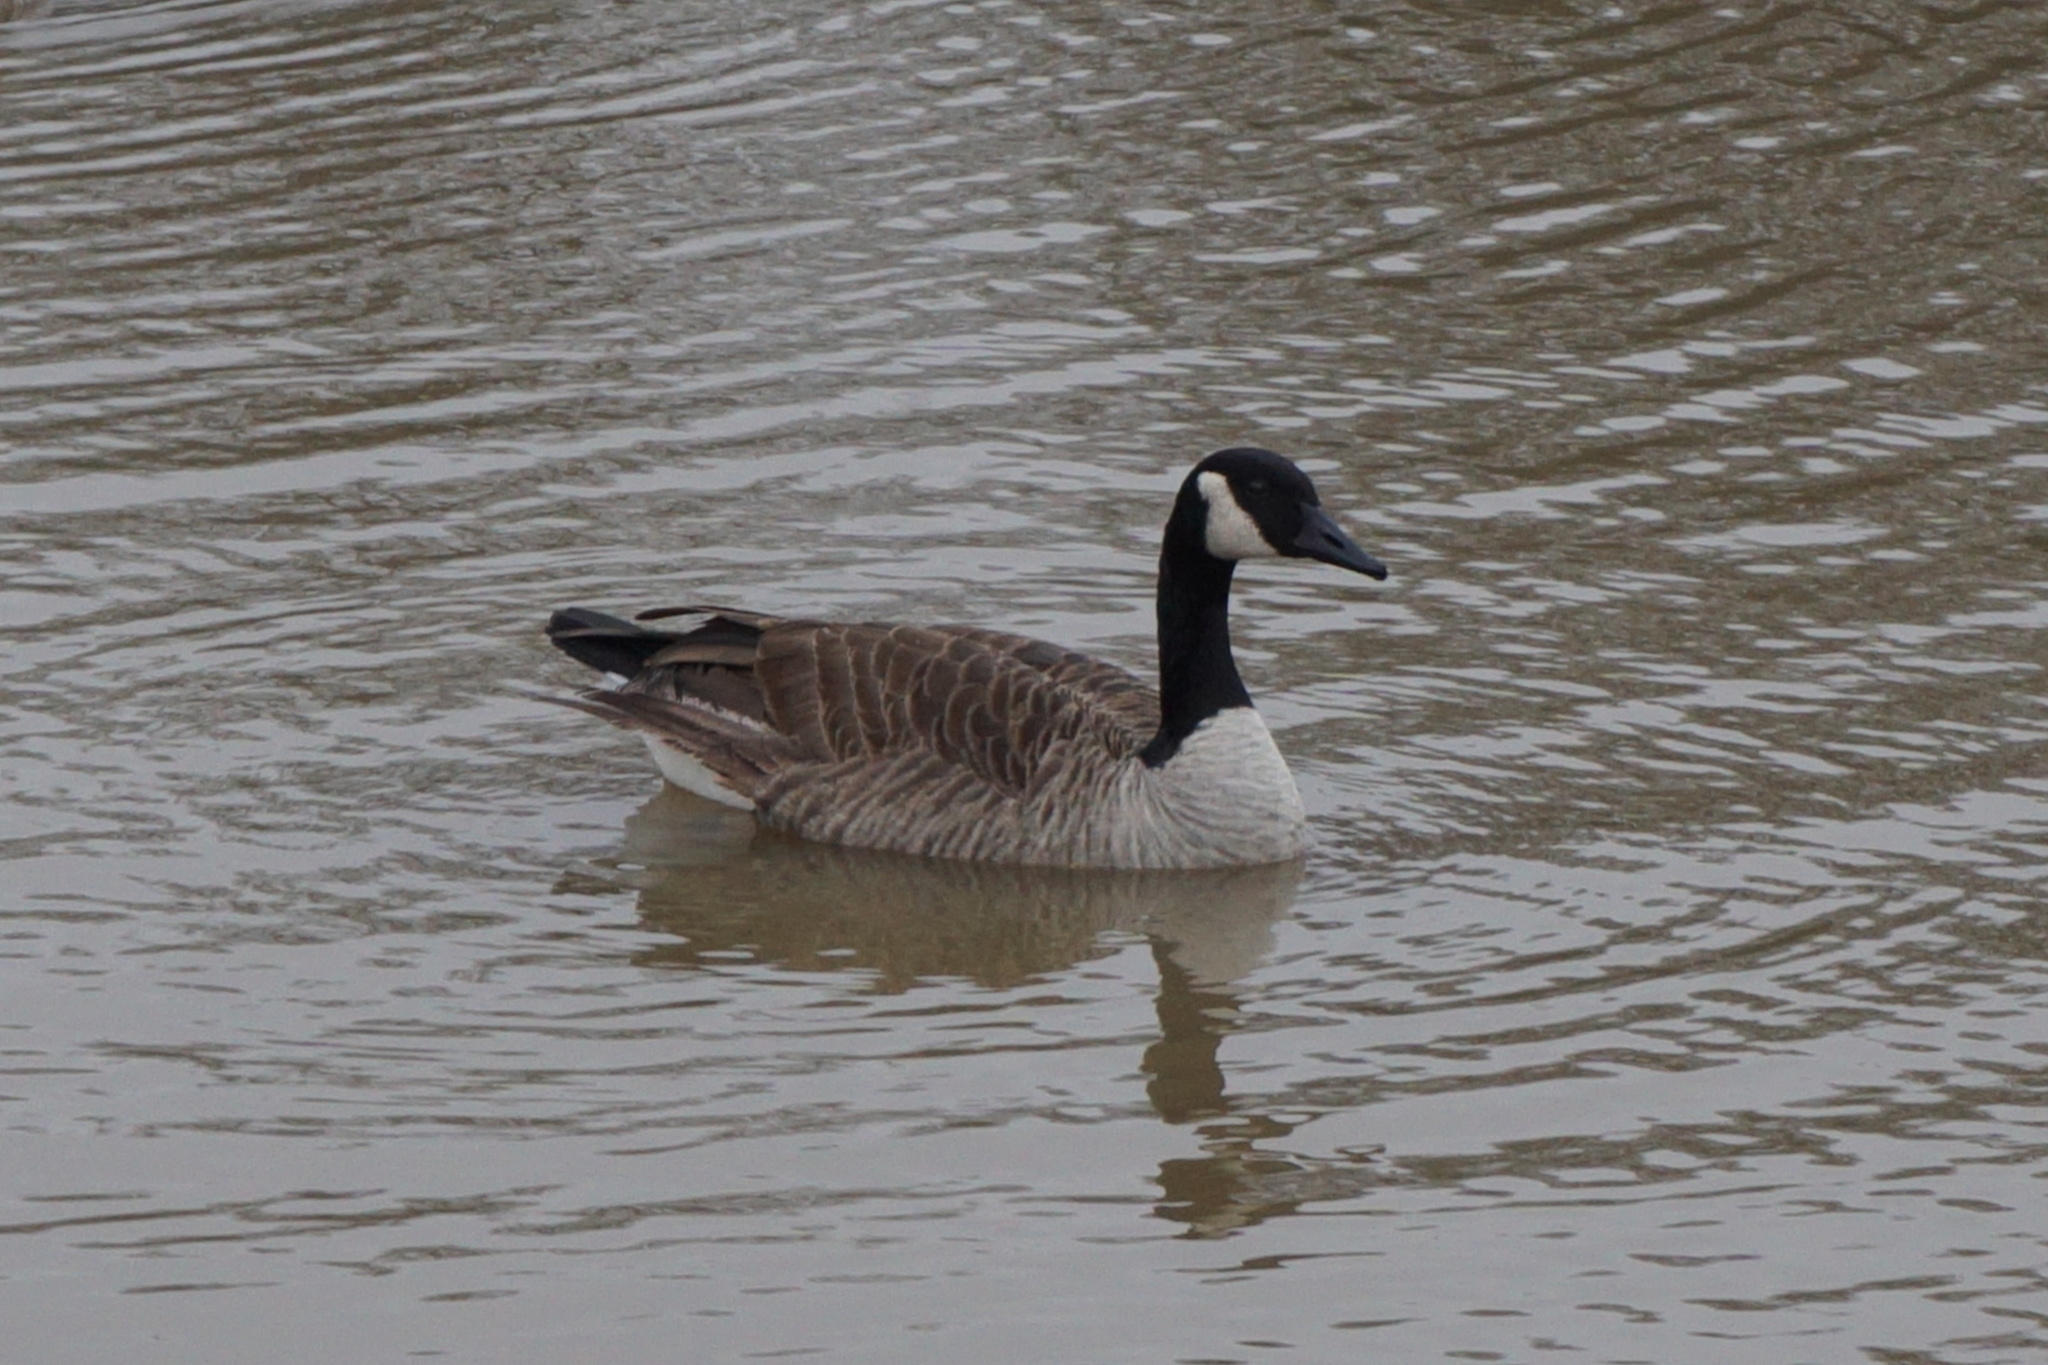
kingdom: Animalia
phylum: Chordata
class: Aves
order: Anseriformes
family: Anatidae
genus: Branta
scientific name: Branta canadensis
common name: Canada goose
